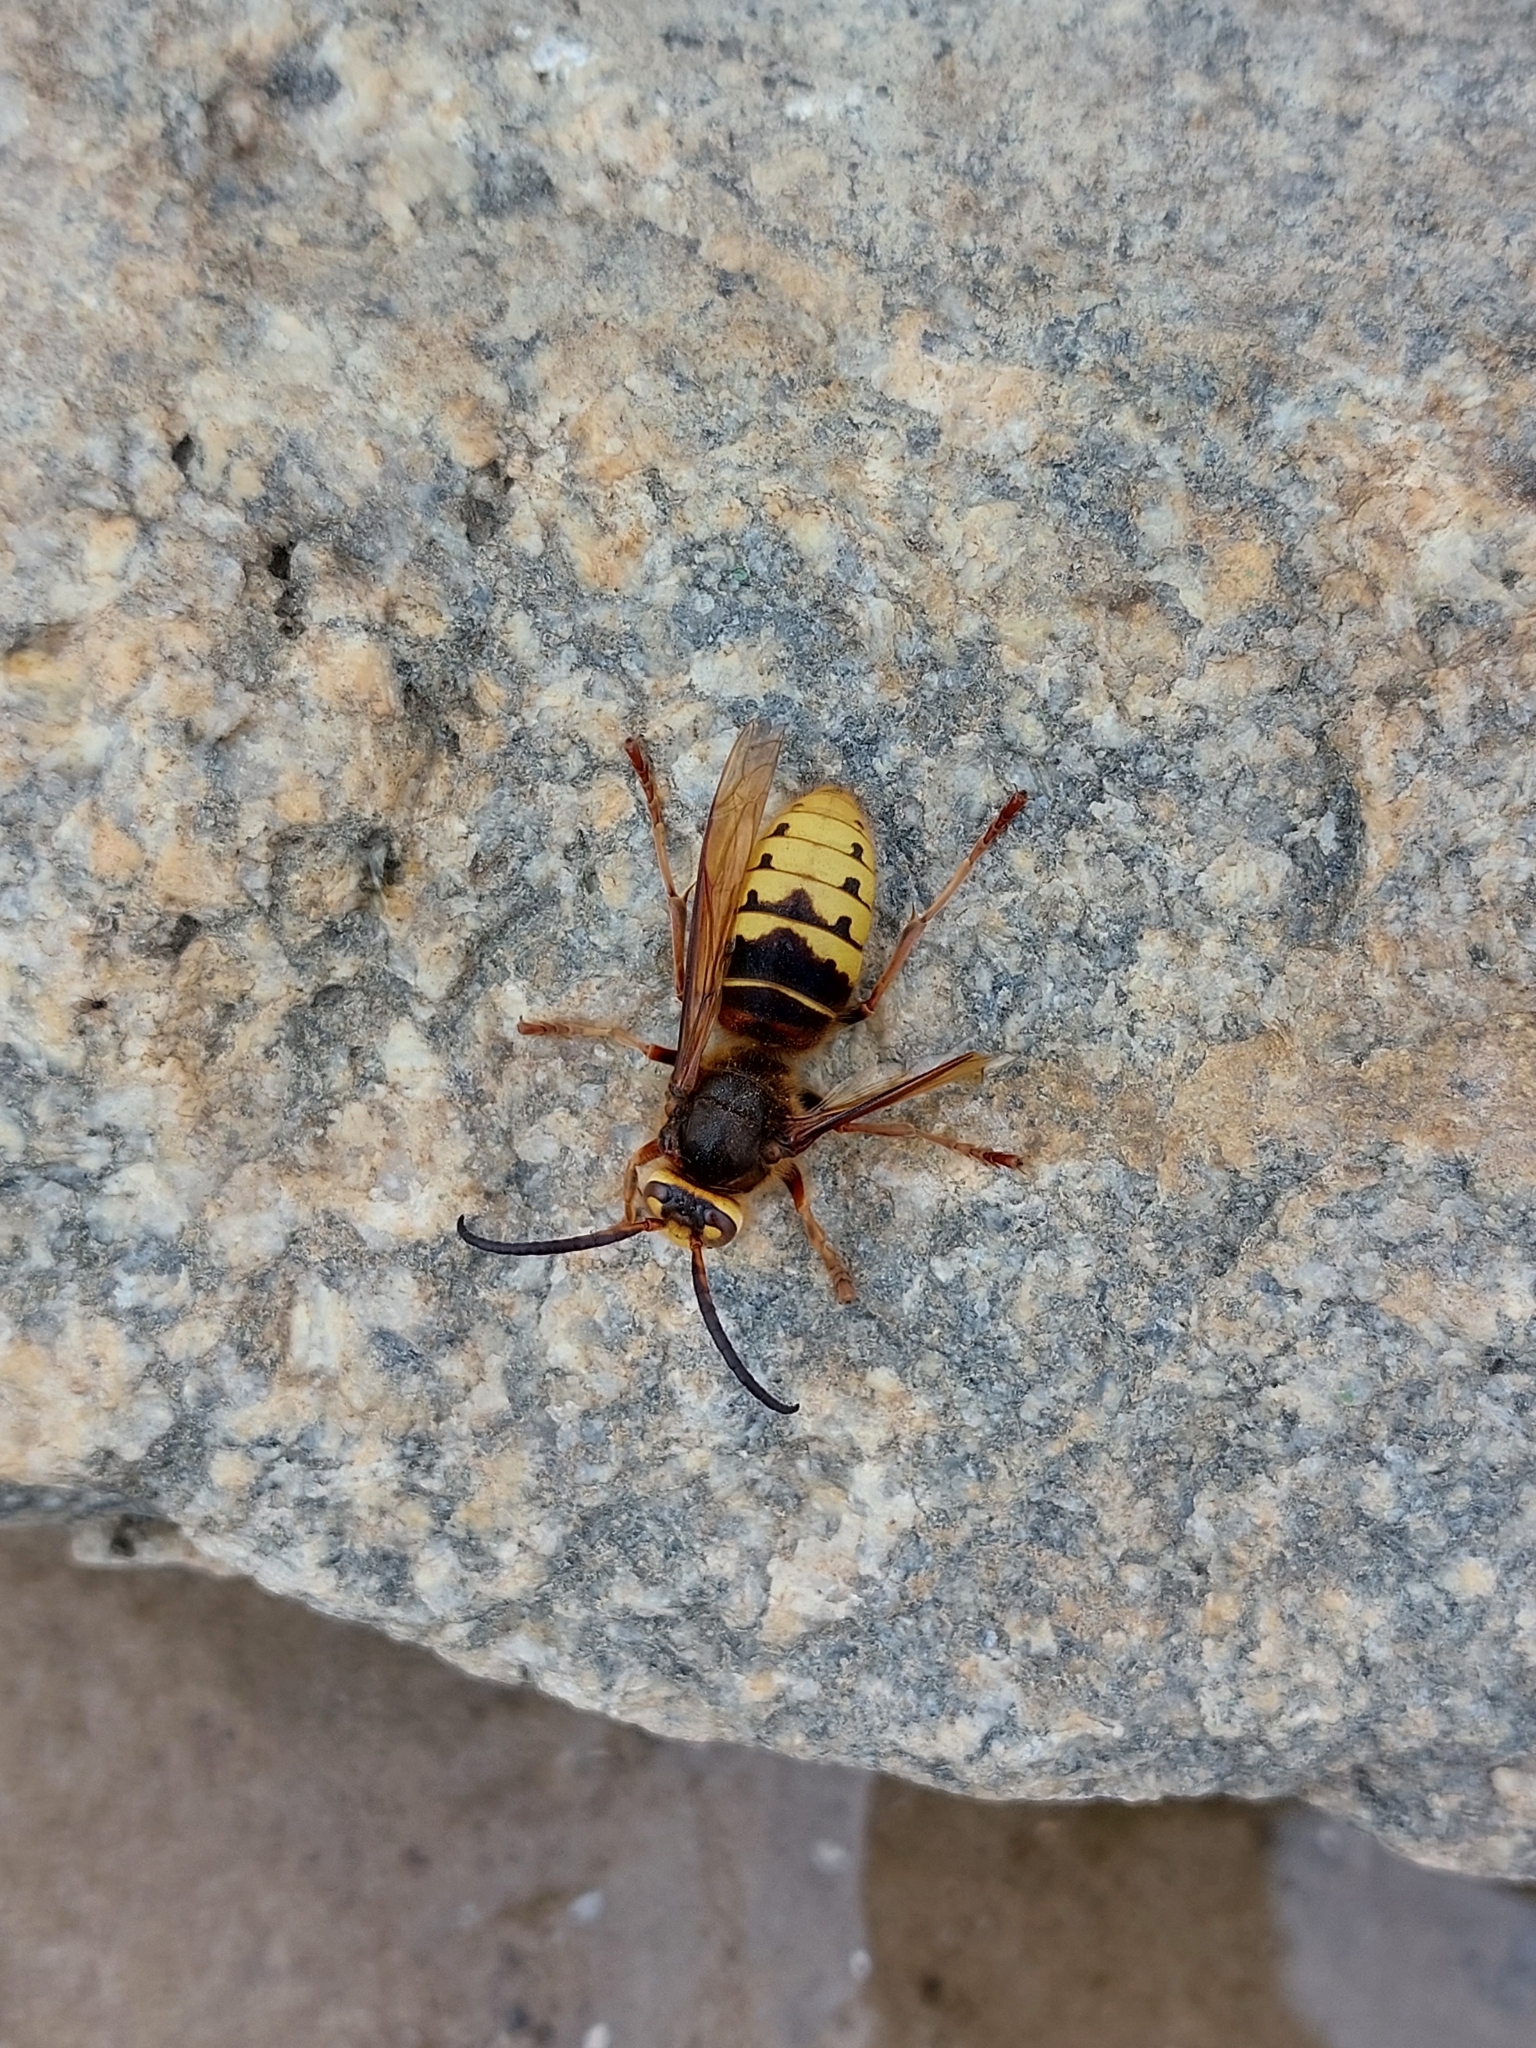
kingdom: Animalia
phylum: Arthropoda
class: Insecta
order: Hymenoptera
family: Vespidae
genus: Vespa
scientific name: Vespa crabro
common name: Hornet
